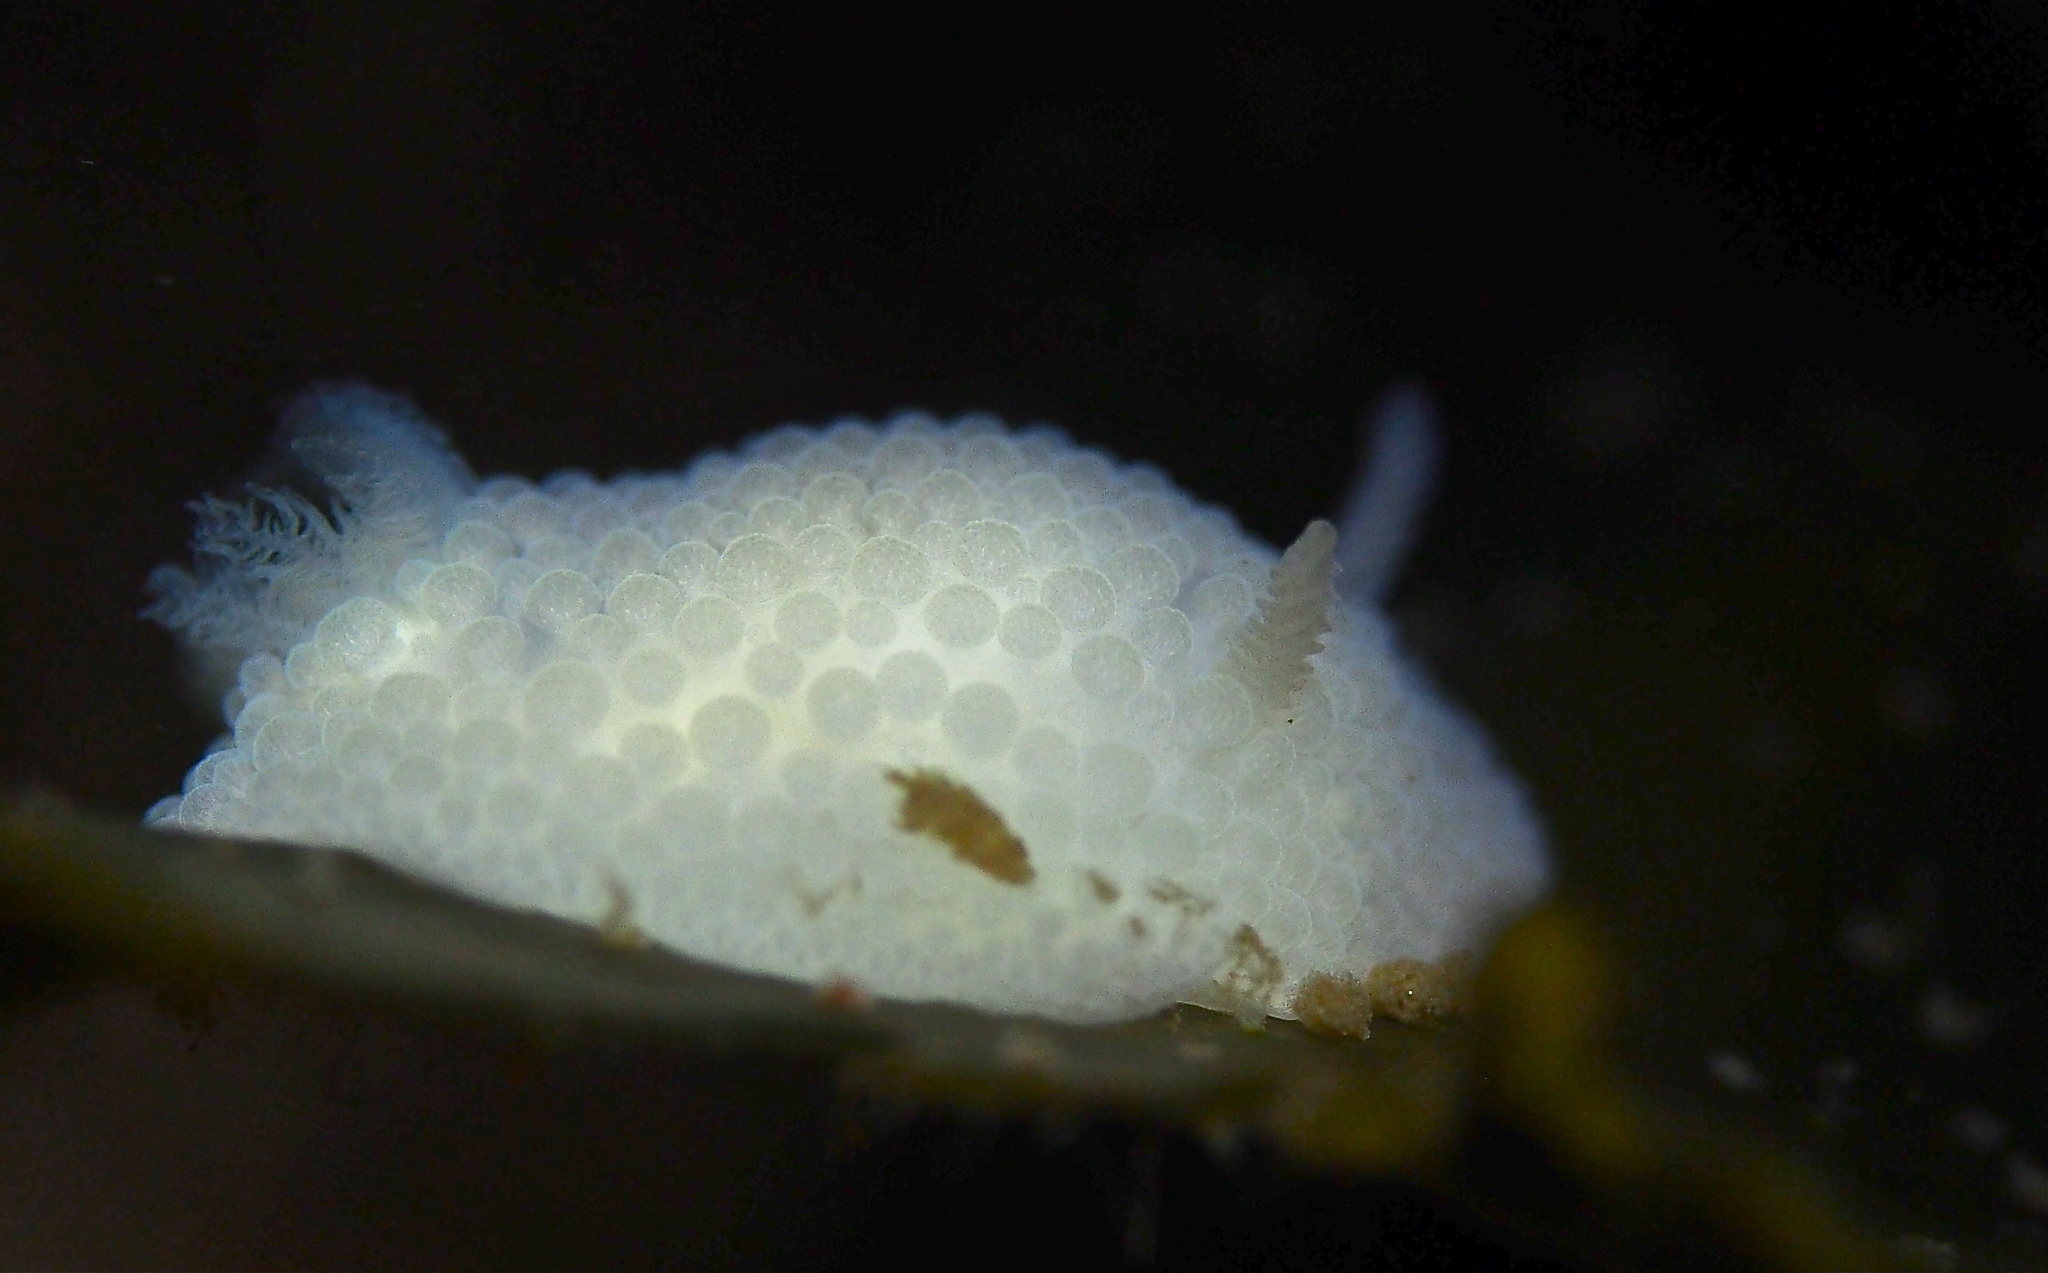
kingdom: Animalia
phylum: Mollusca
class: Gastropoda
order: Nudibranchia
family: Onchidorididae
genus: Onchidoris
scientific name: Onchidoris muricata
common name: Rough doris
